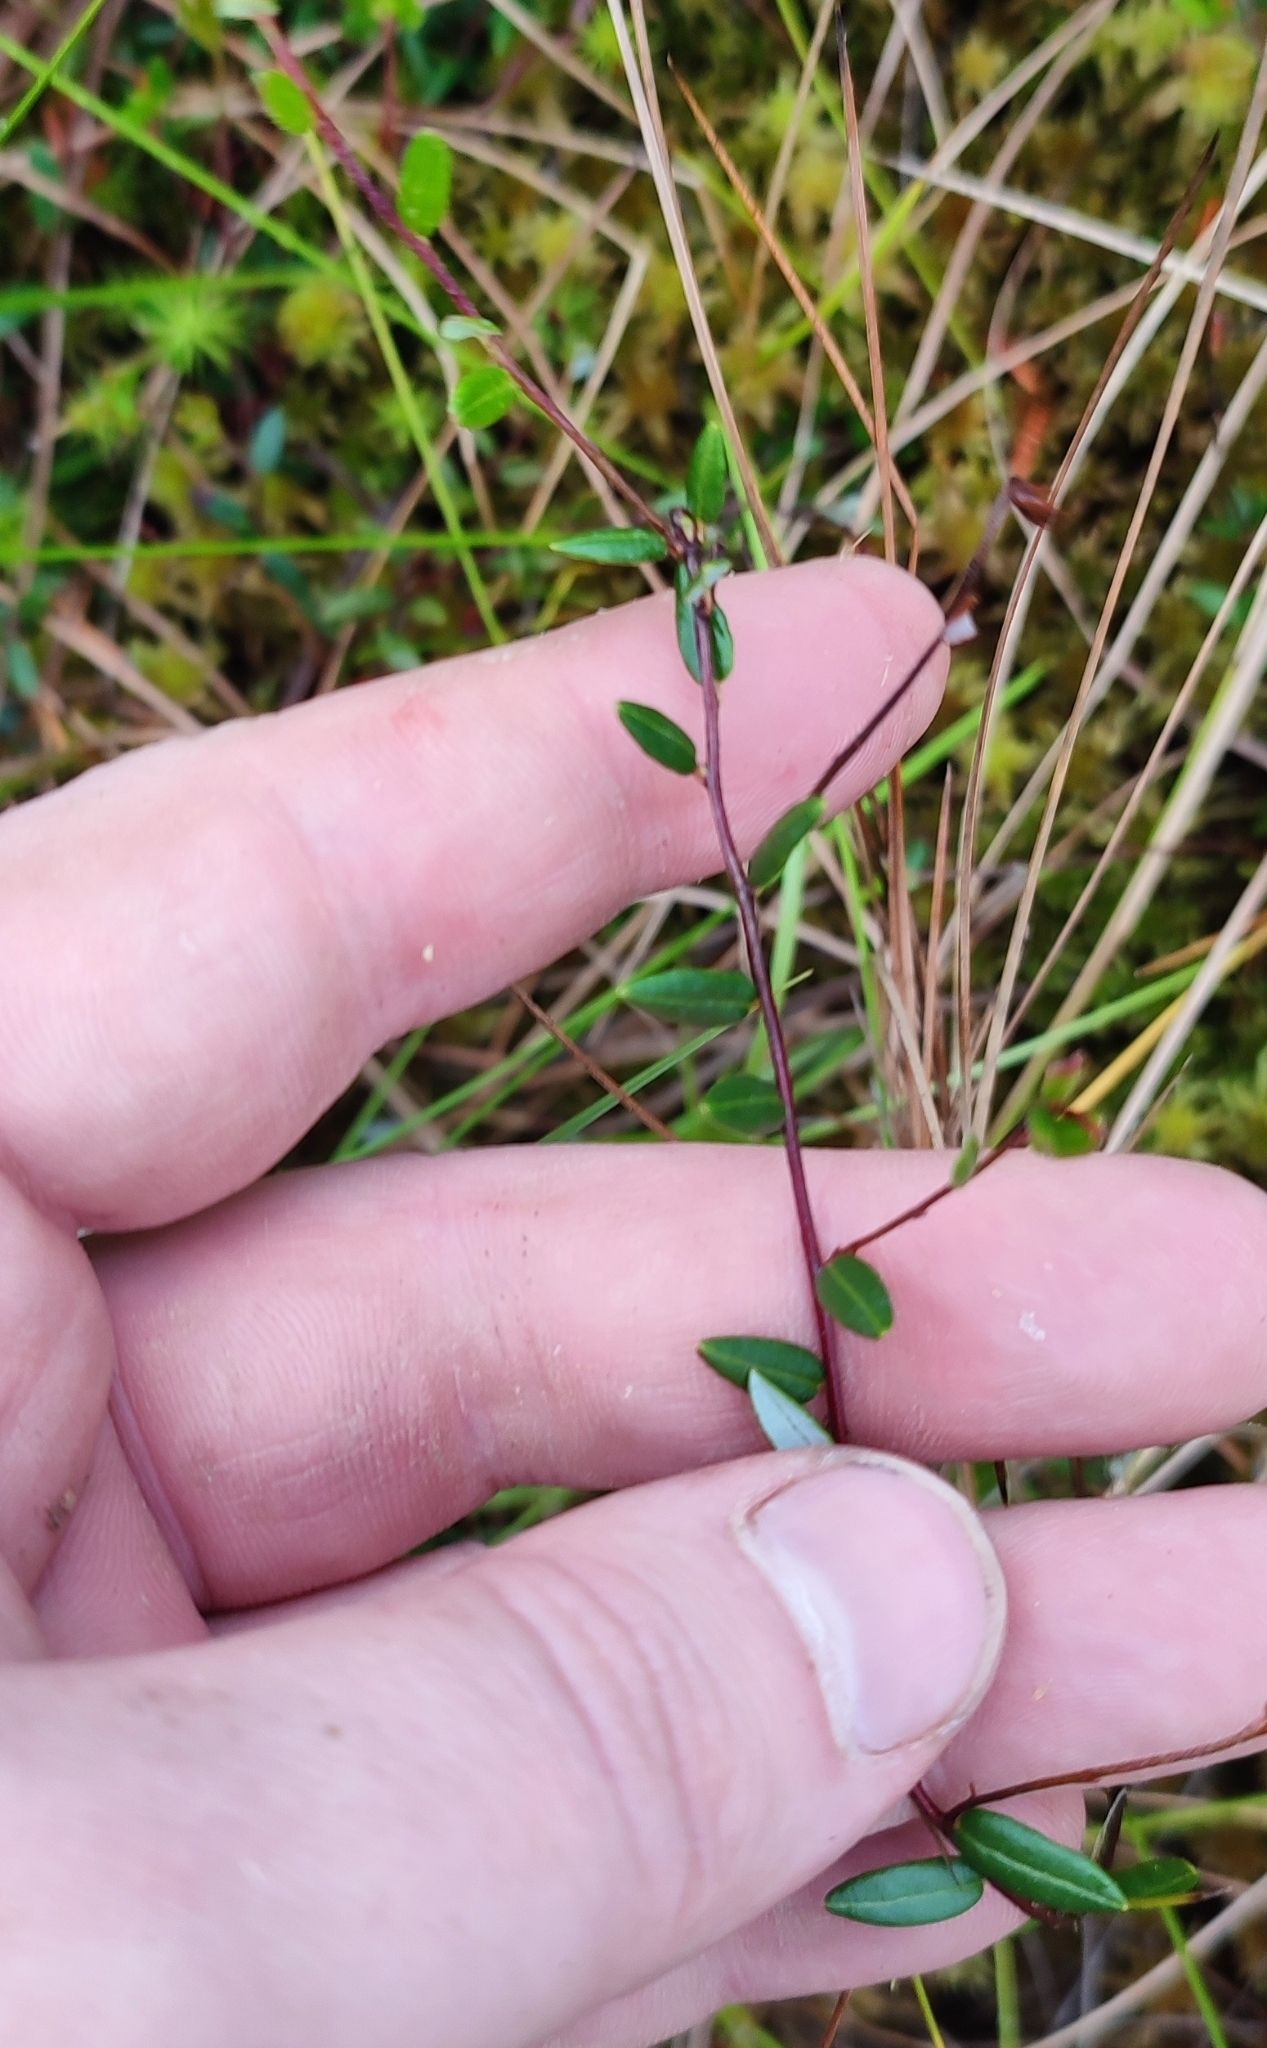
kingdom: Plantae
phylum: Tracheophyta
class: Magnoliopsida
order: Ericales
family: Ericaceae
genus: Vaccinium
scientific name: Vaccinium oxycoccos
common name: Cranberry
